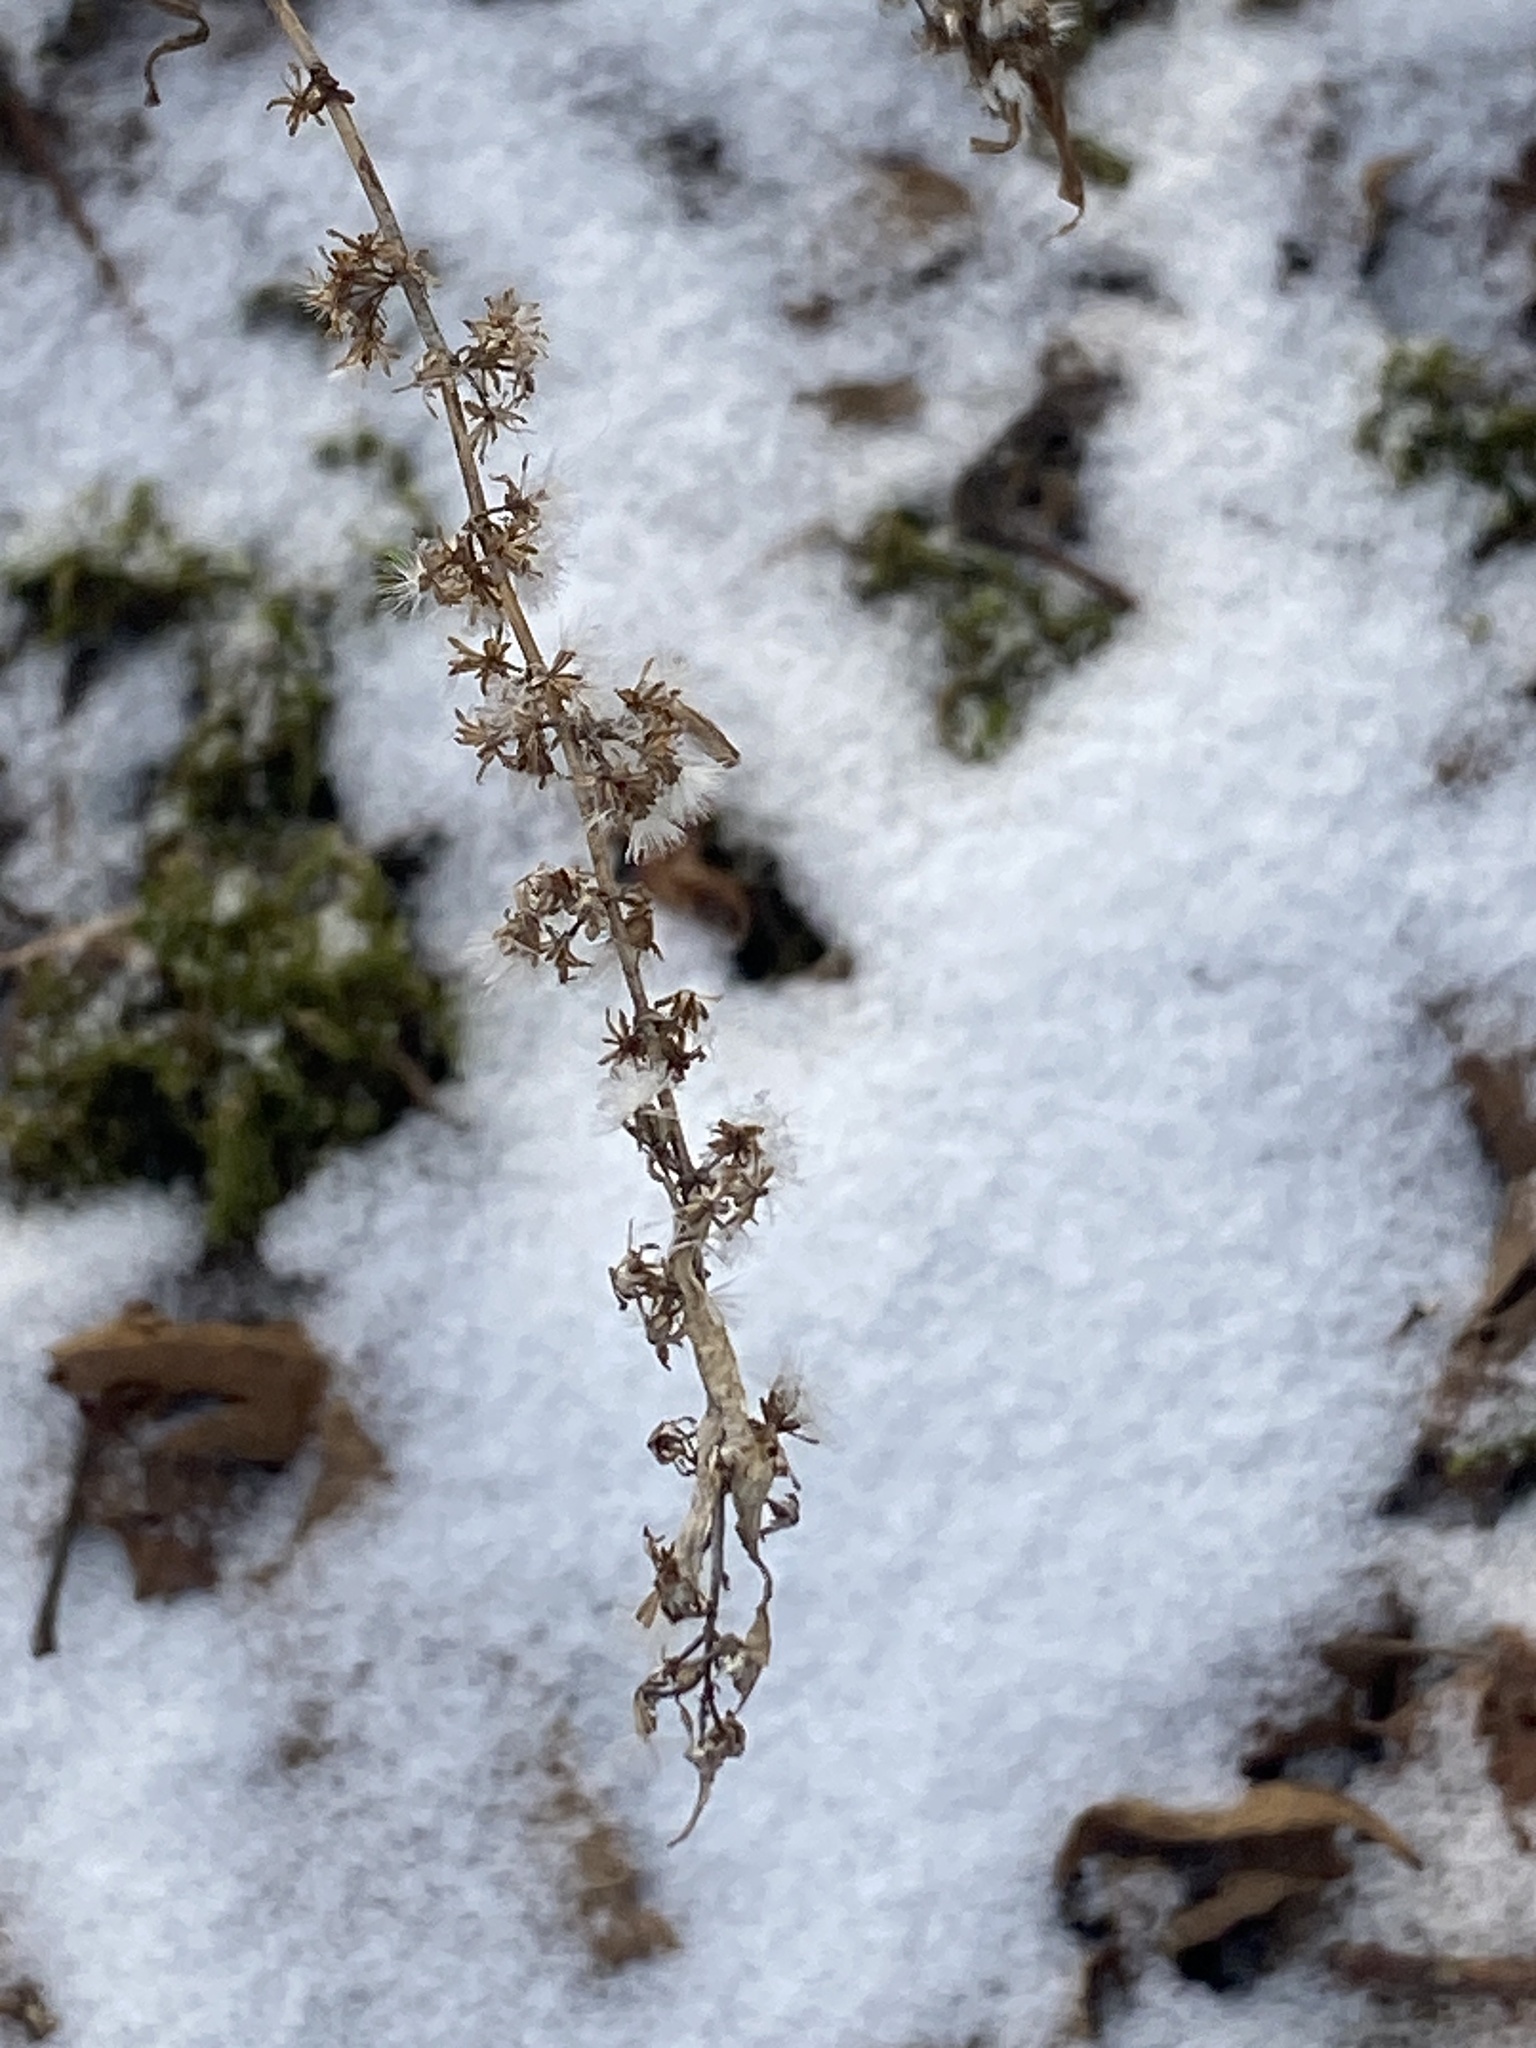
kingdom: Plantae
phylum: Tracheophyta
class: Magnoliopsida
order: Asterales
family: Asteraceae
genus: Solidago
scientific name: Solidago caesia
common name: Woodland goldenrod
